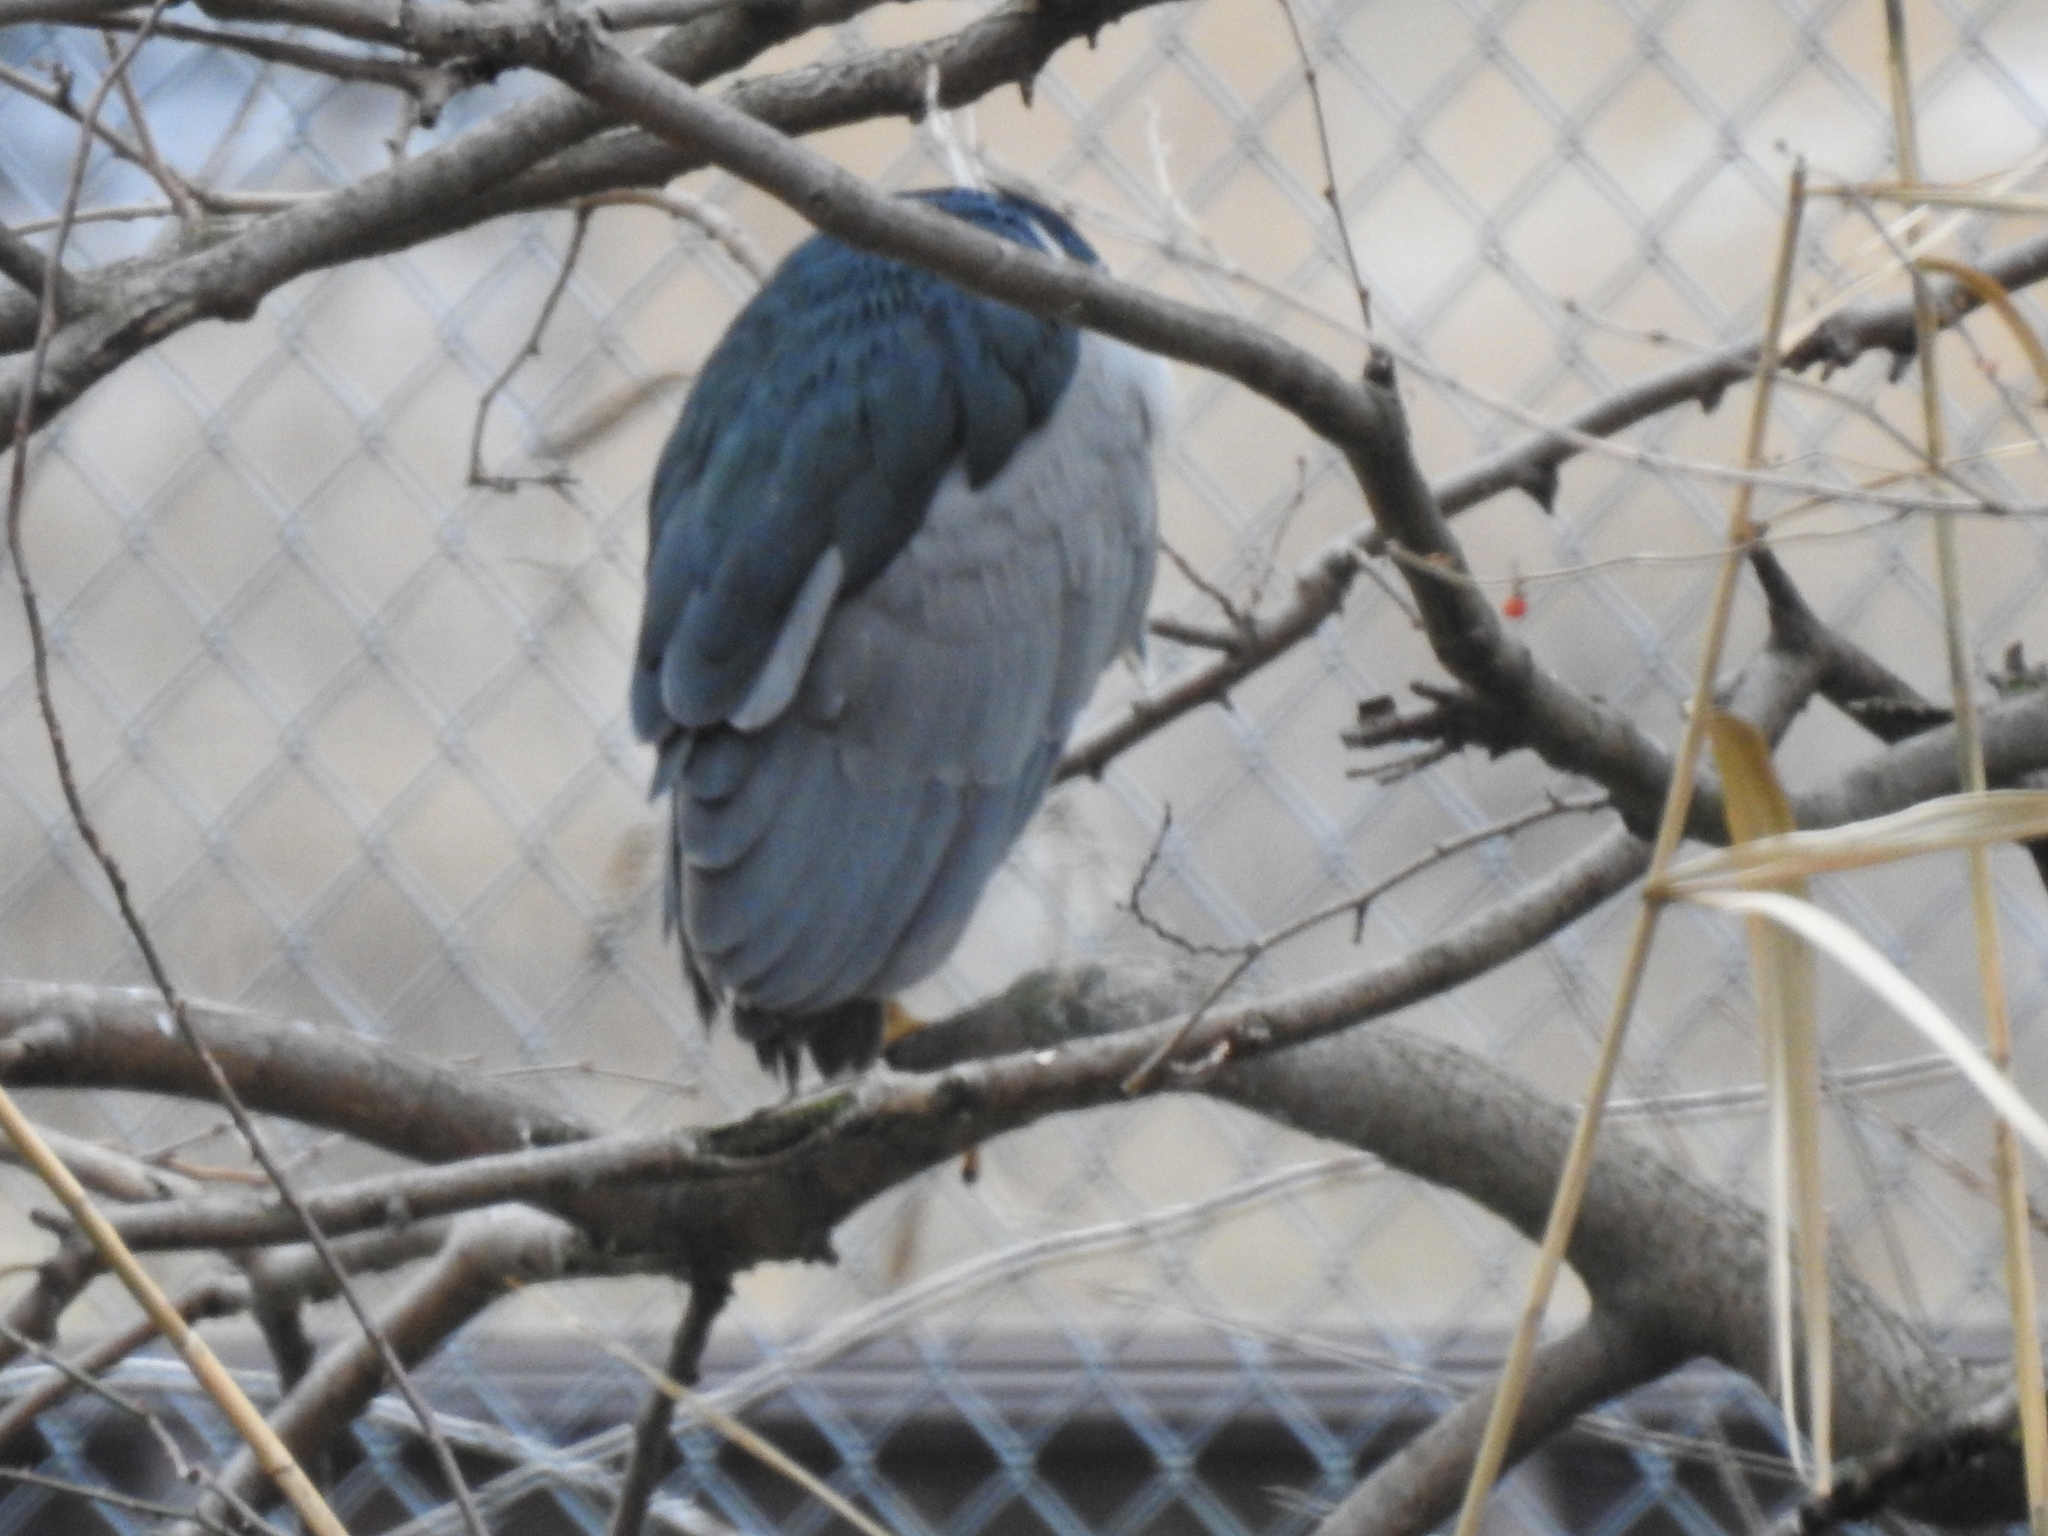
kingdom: Animalia
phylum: Chordata
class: Aves
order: Pelecaniformes
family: Ardeidae
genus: Nycticorax
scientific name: Nycticorax nycticorax
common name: Black-crowned night heron
